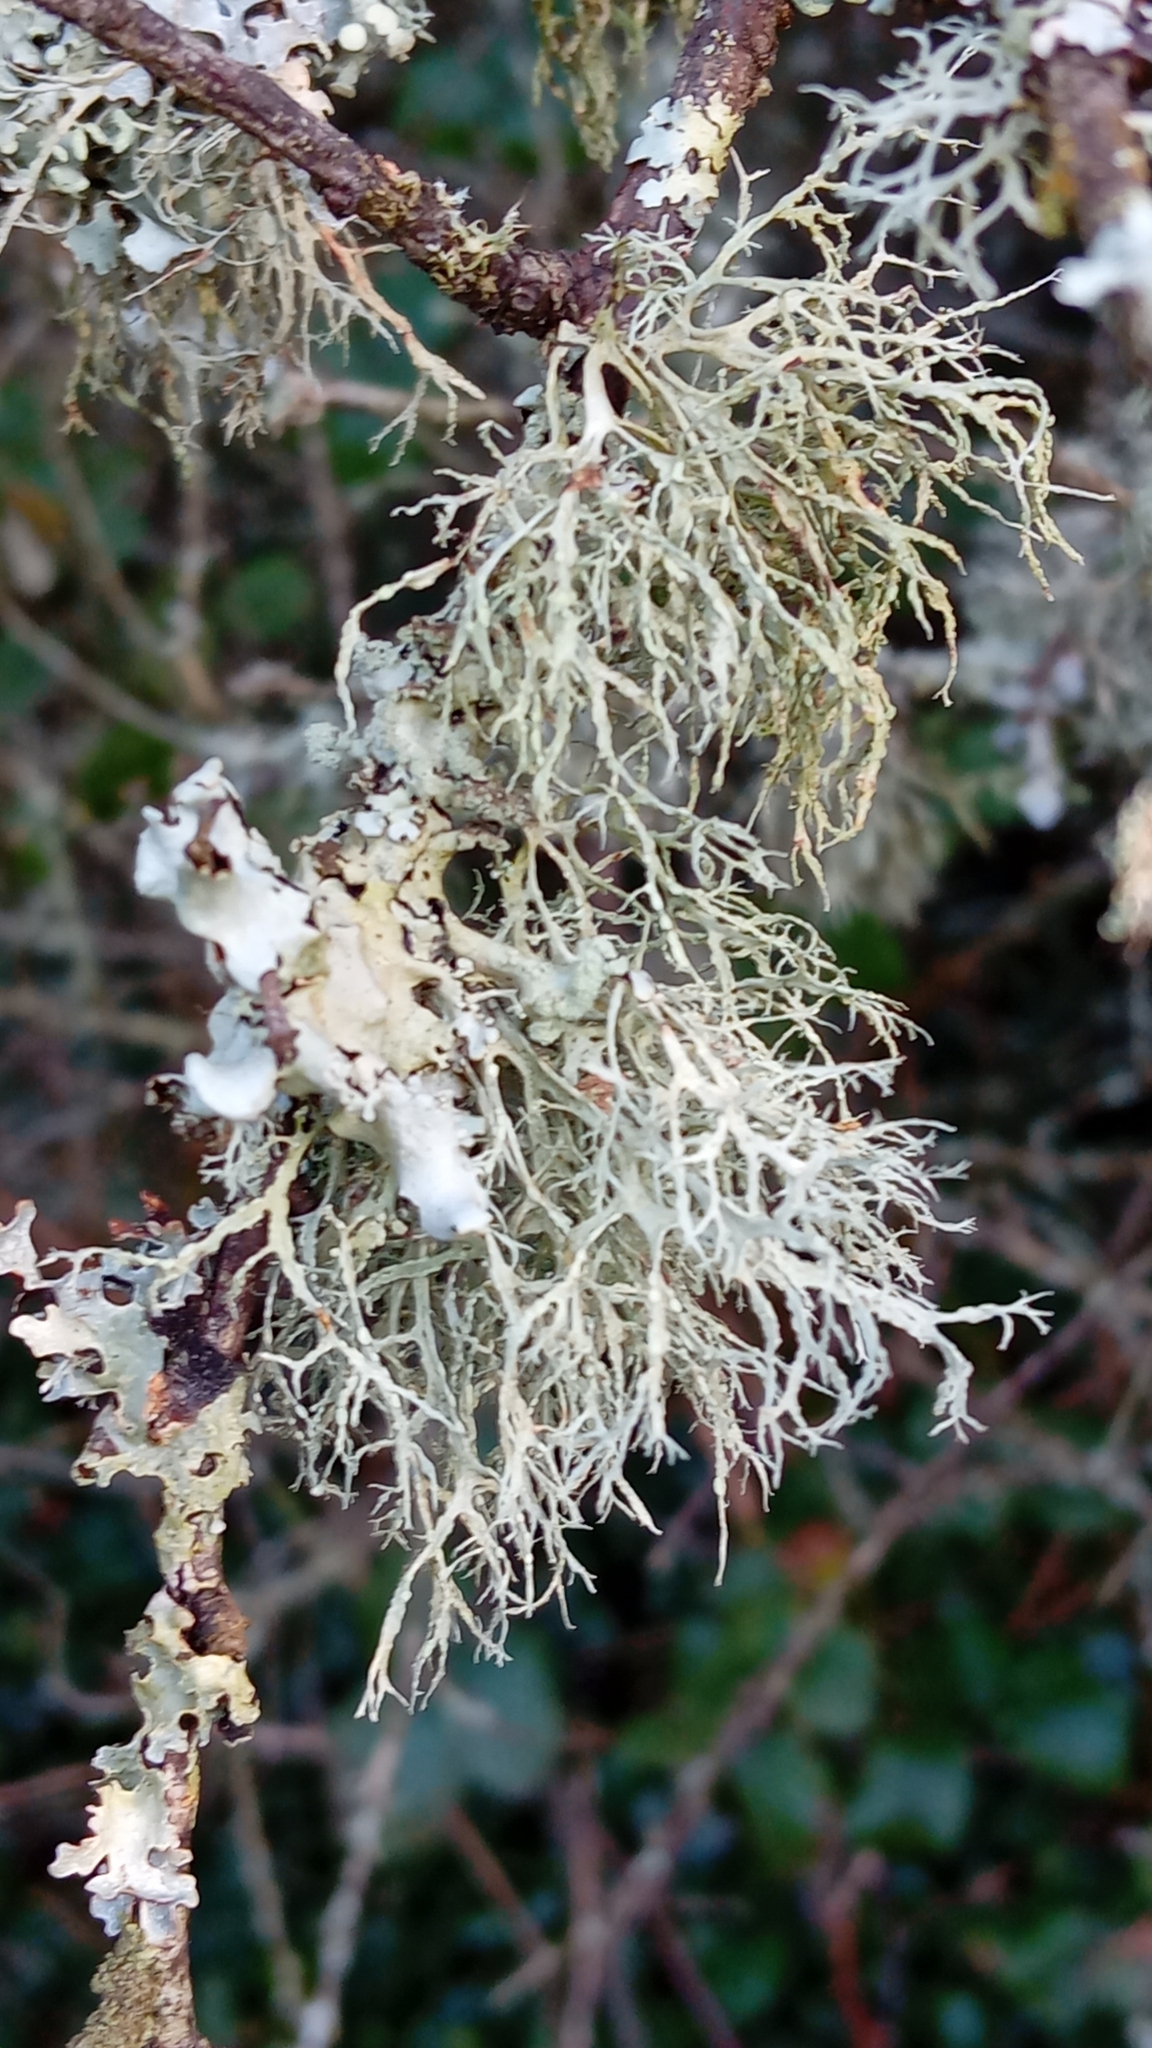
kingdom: Fungi
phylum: Ascomycota
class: Lecanoromycetes
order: Lecanorales
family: Ramalinaceae
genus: Ramalina
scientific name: Ramalina farinacea
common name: Farinose cartilage lichen
